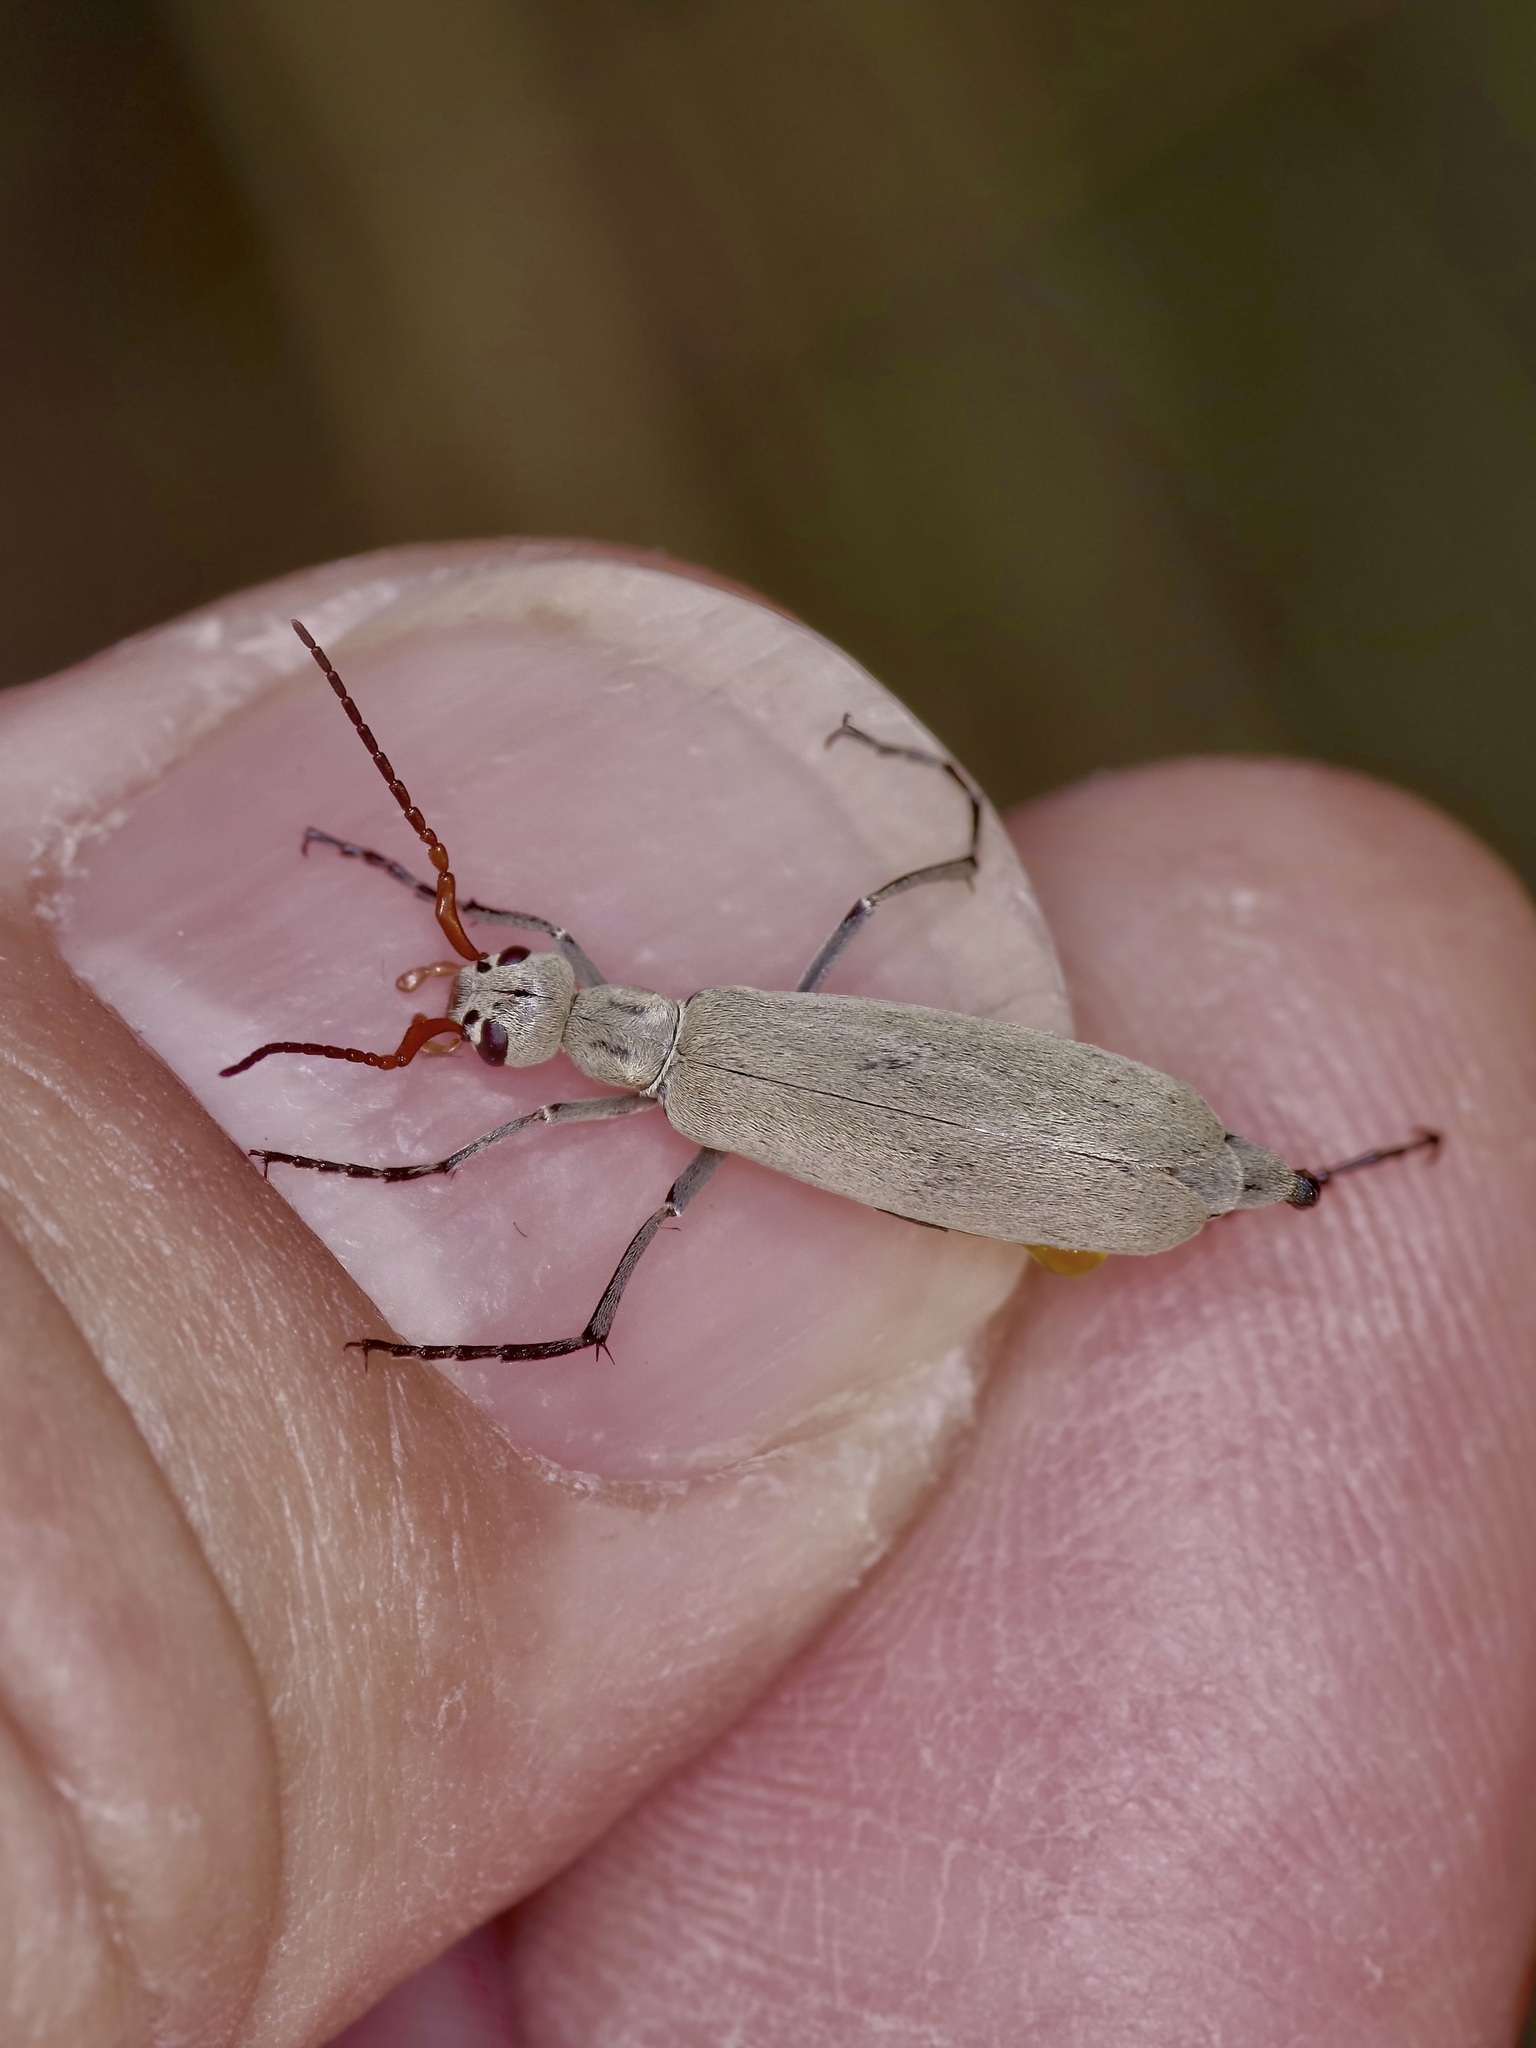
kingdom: Animalia
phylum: Arthropoda
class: Insecta
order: Coleoptera
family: Meloidae
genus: Epicauta
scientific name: Epicauta albida
